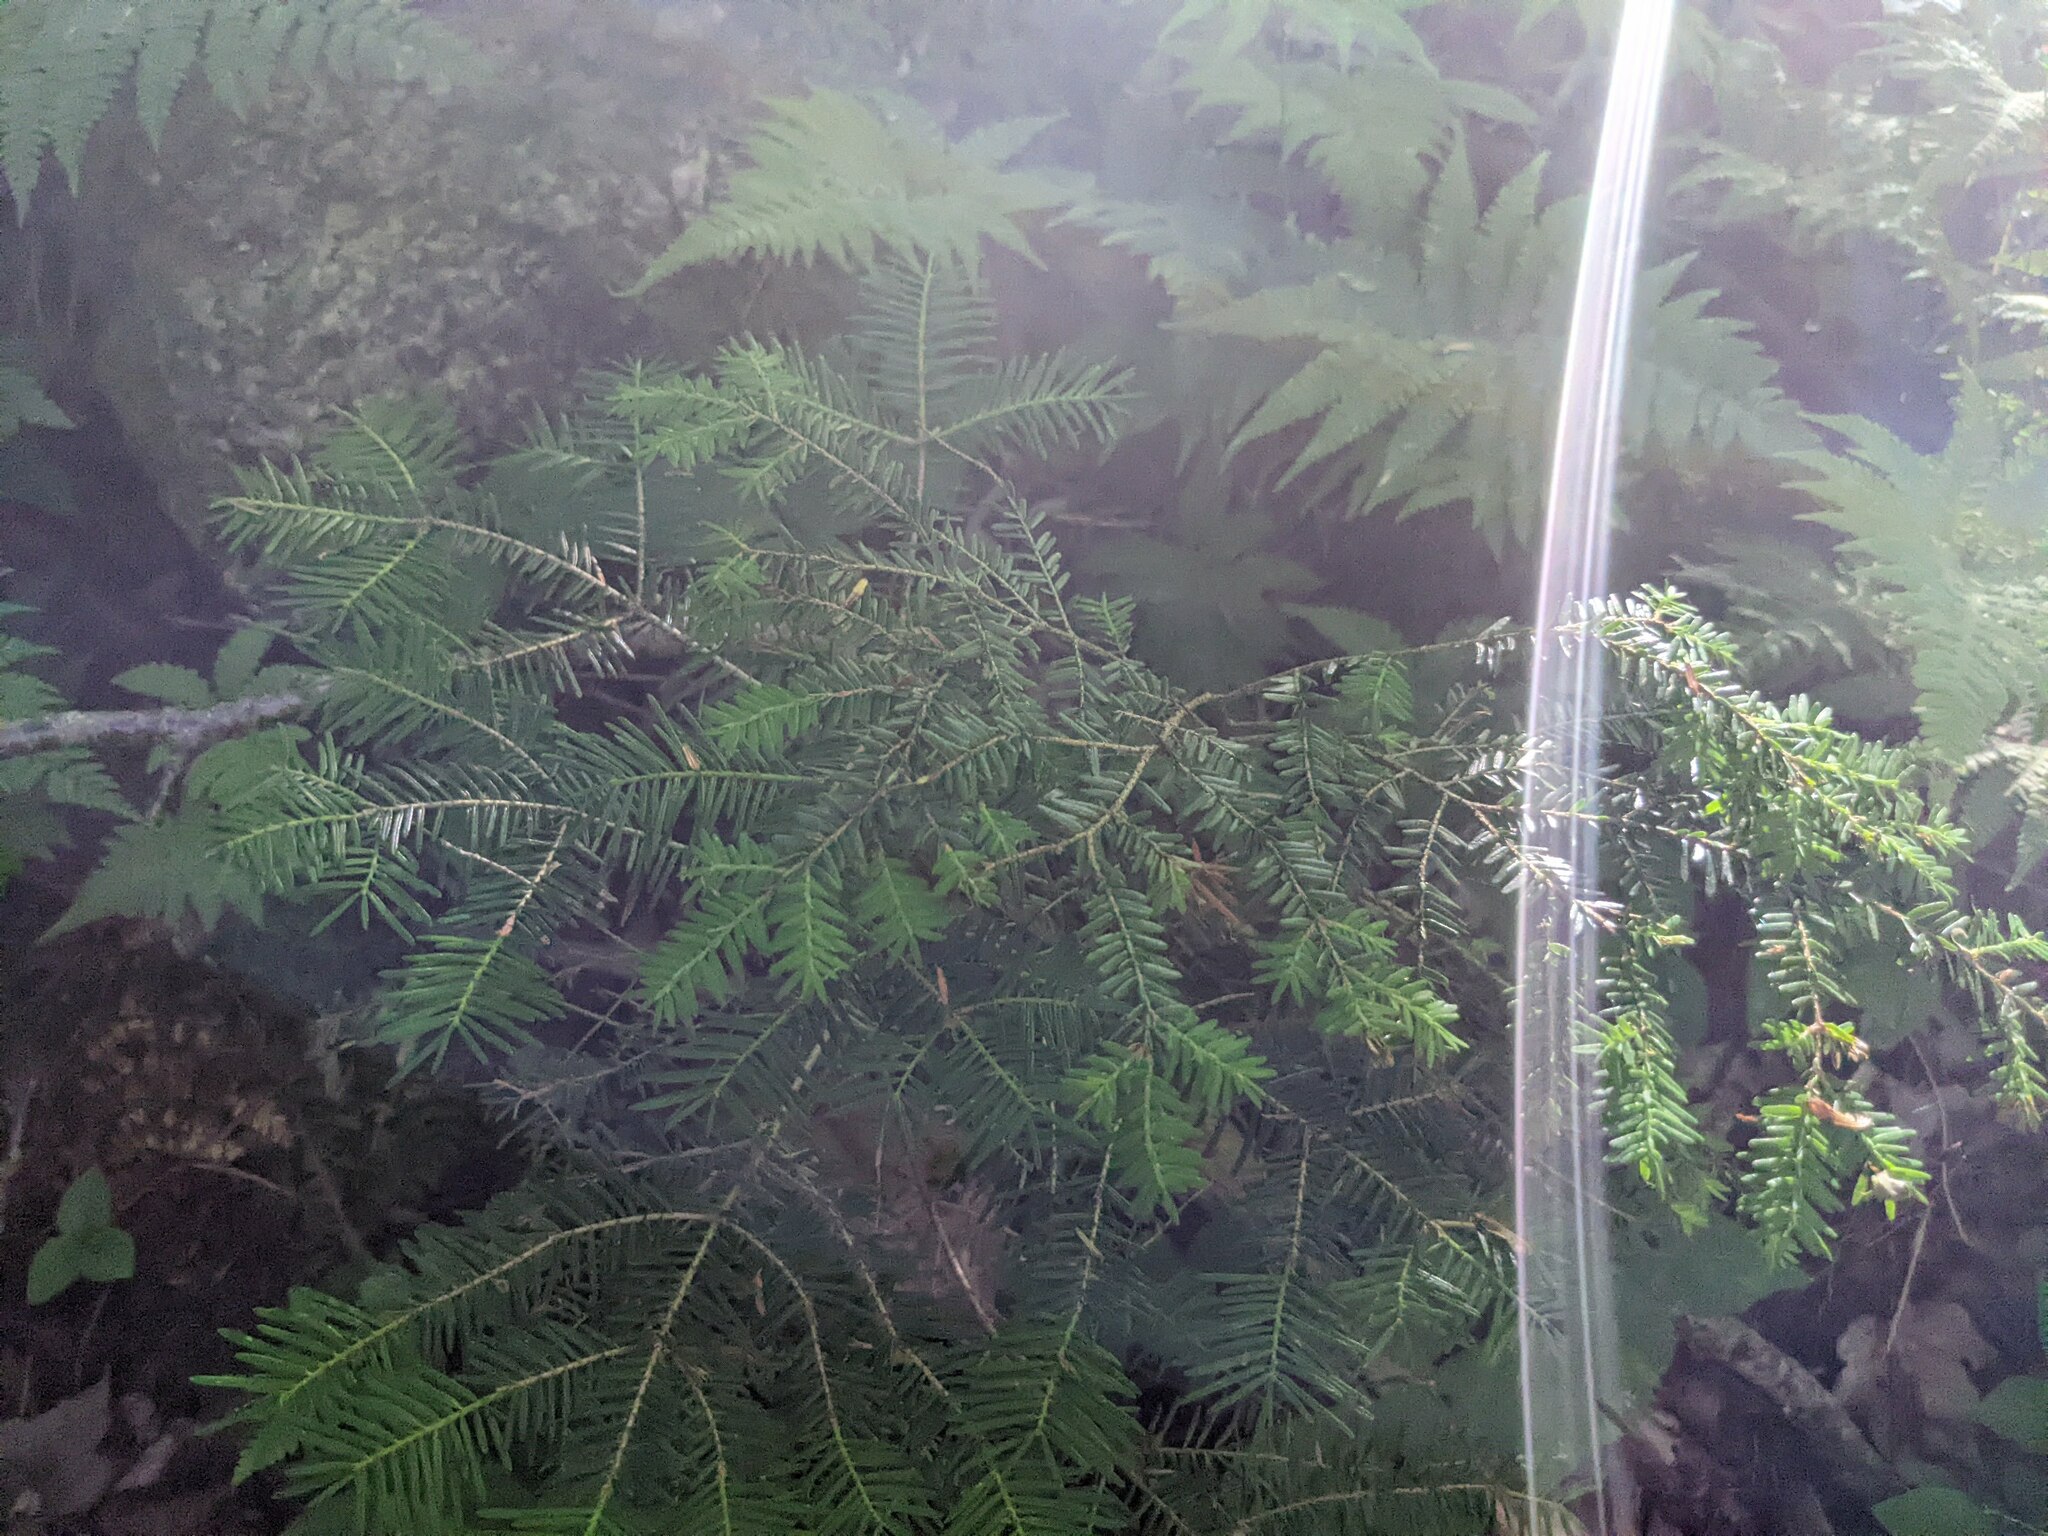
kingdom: Plantae
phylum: Tracheophyta
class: Pinopsida
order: Pinales
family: Pinaceae
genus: Tsuga
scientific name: Tsuga canadensis
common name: Eastern hemlock
